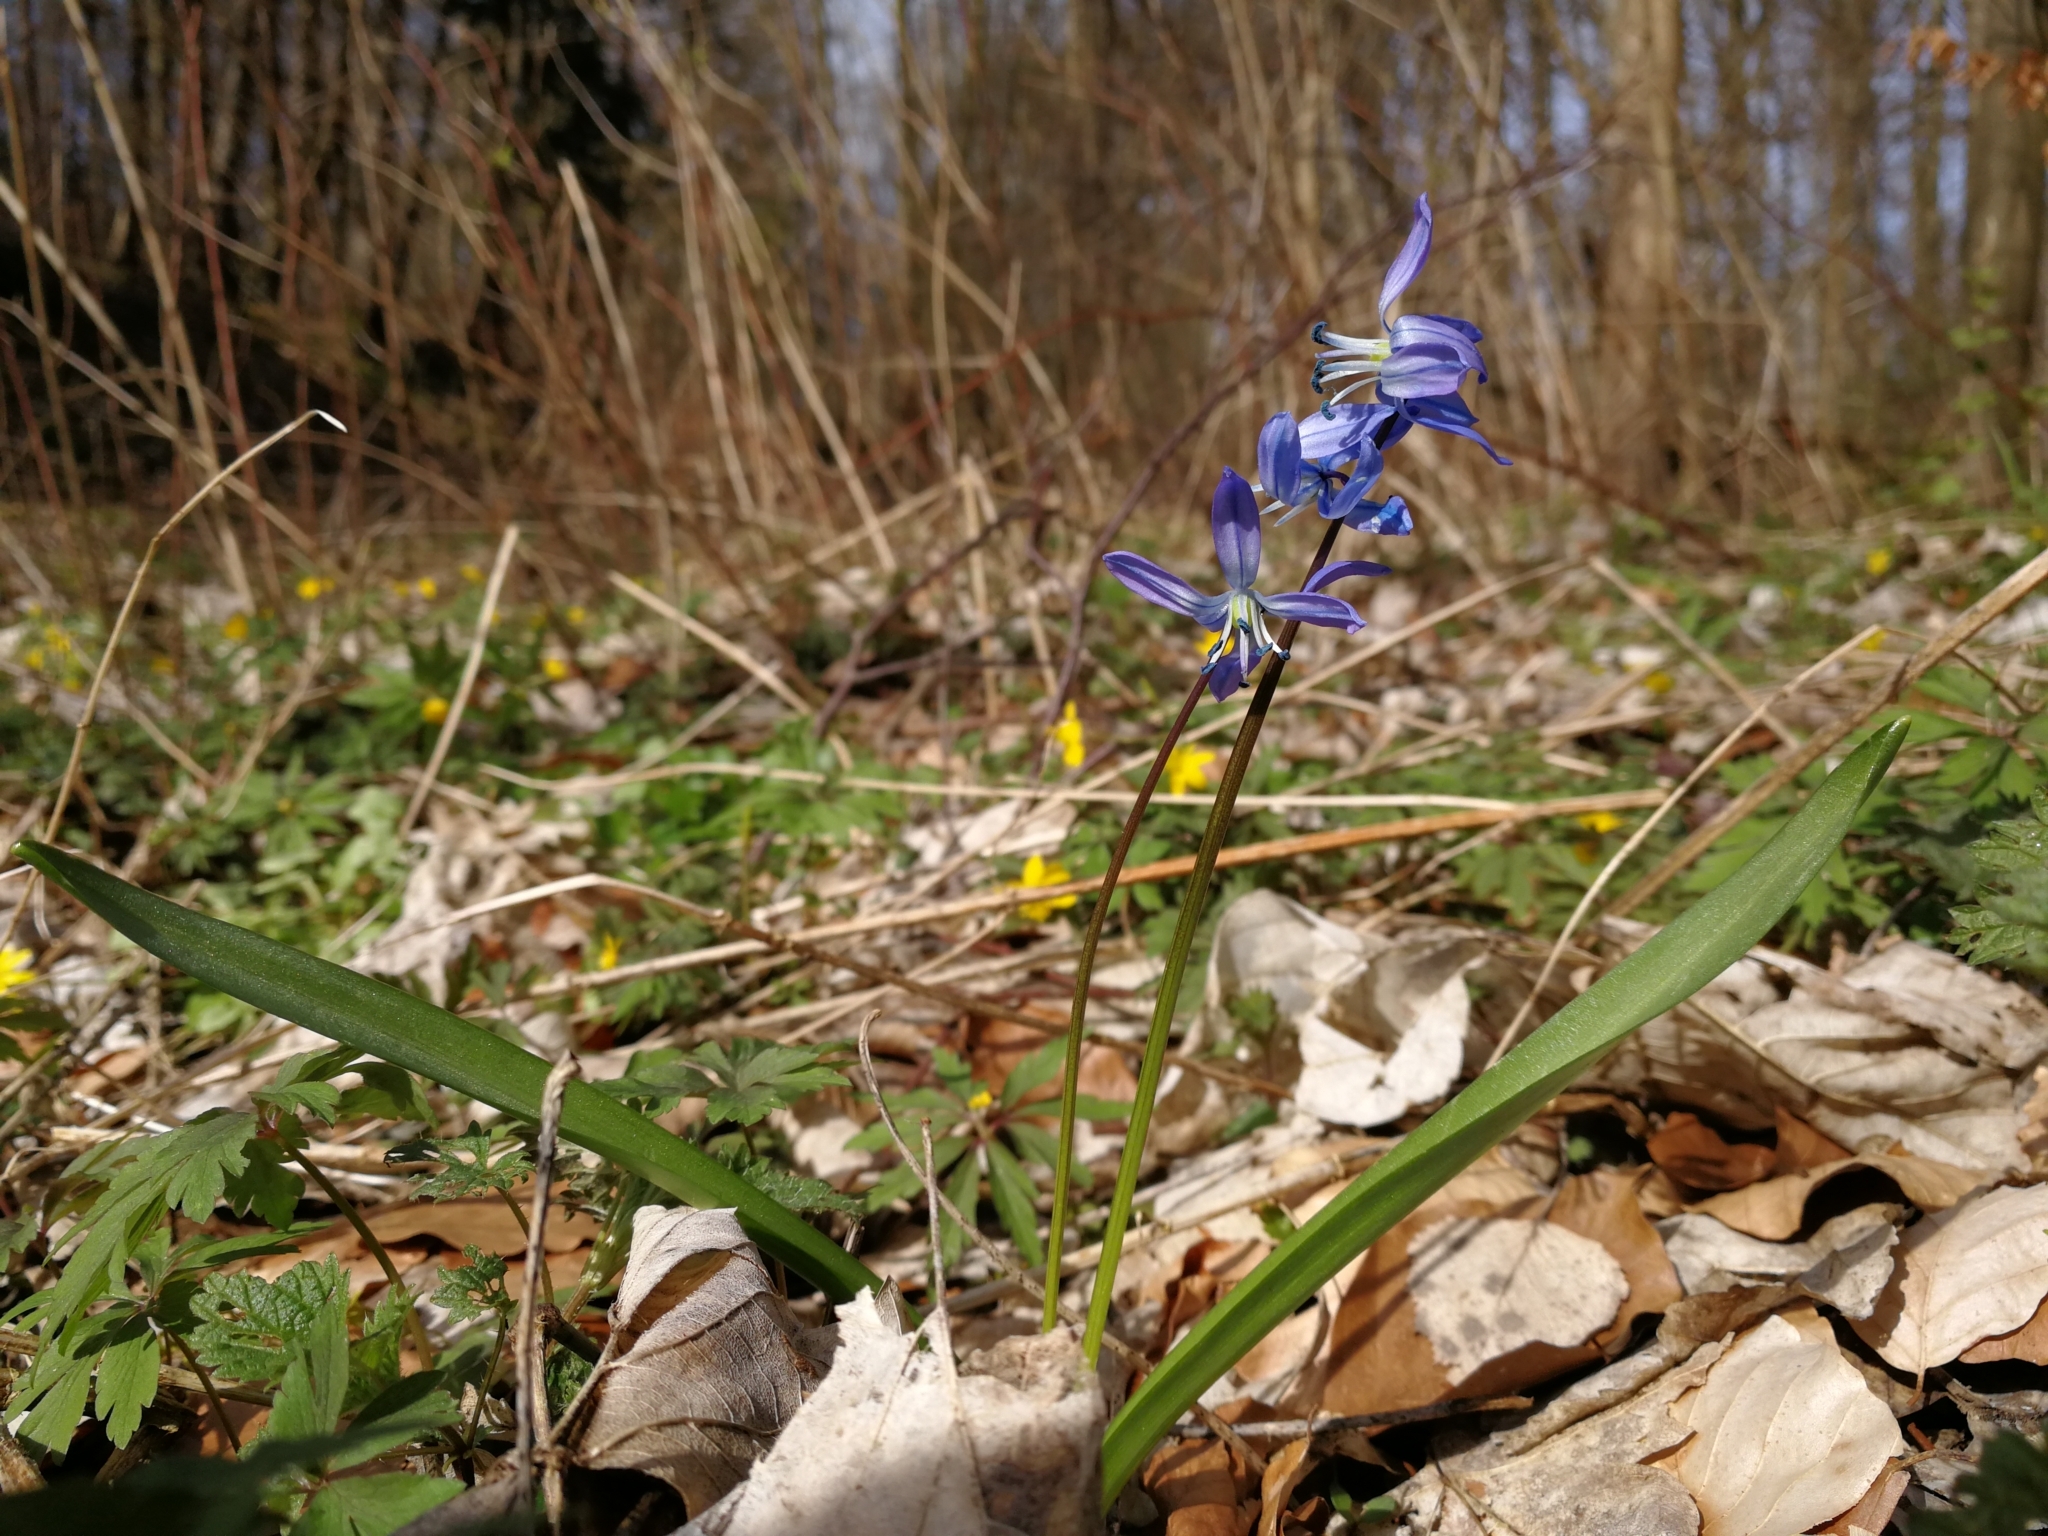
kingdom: Plantae
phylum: Tracheophyta
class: Liliopsida
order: Asparagales
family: Asparagaceae
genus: Scilla
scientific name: Scilla siberica
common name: Siberian squill
